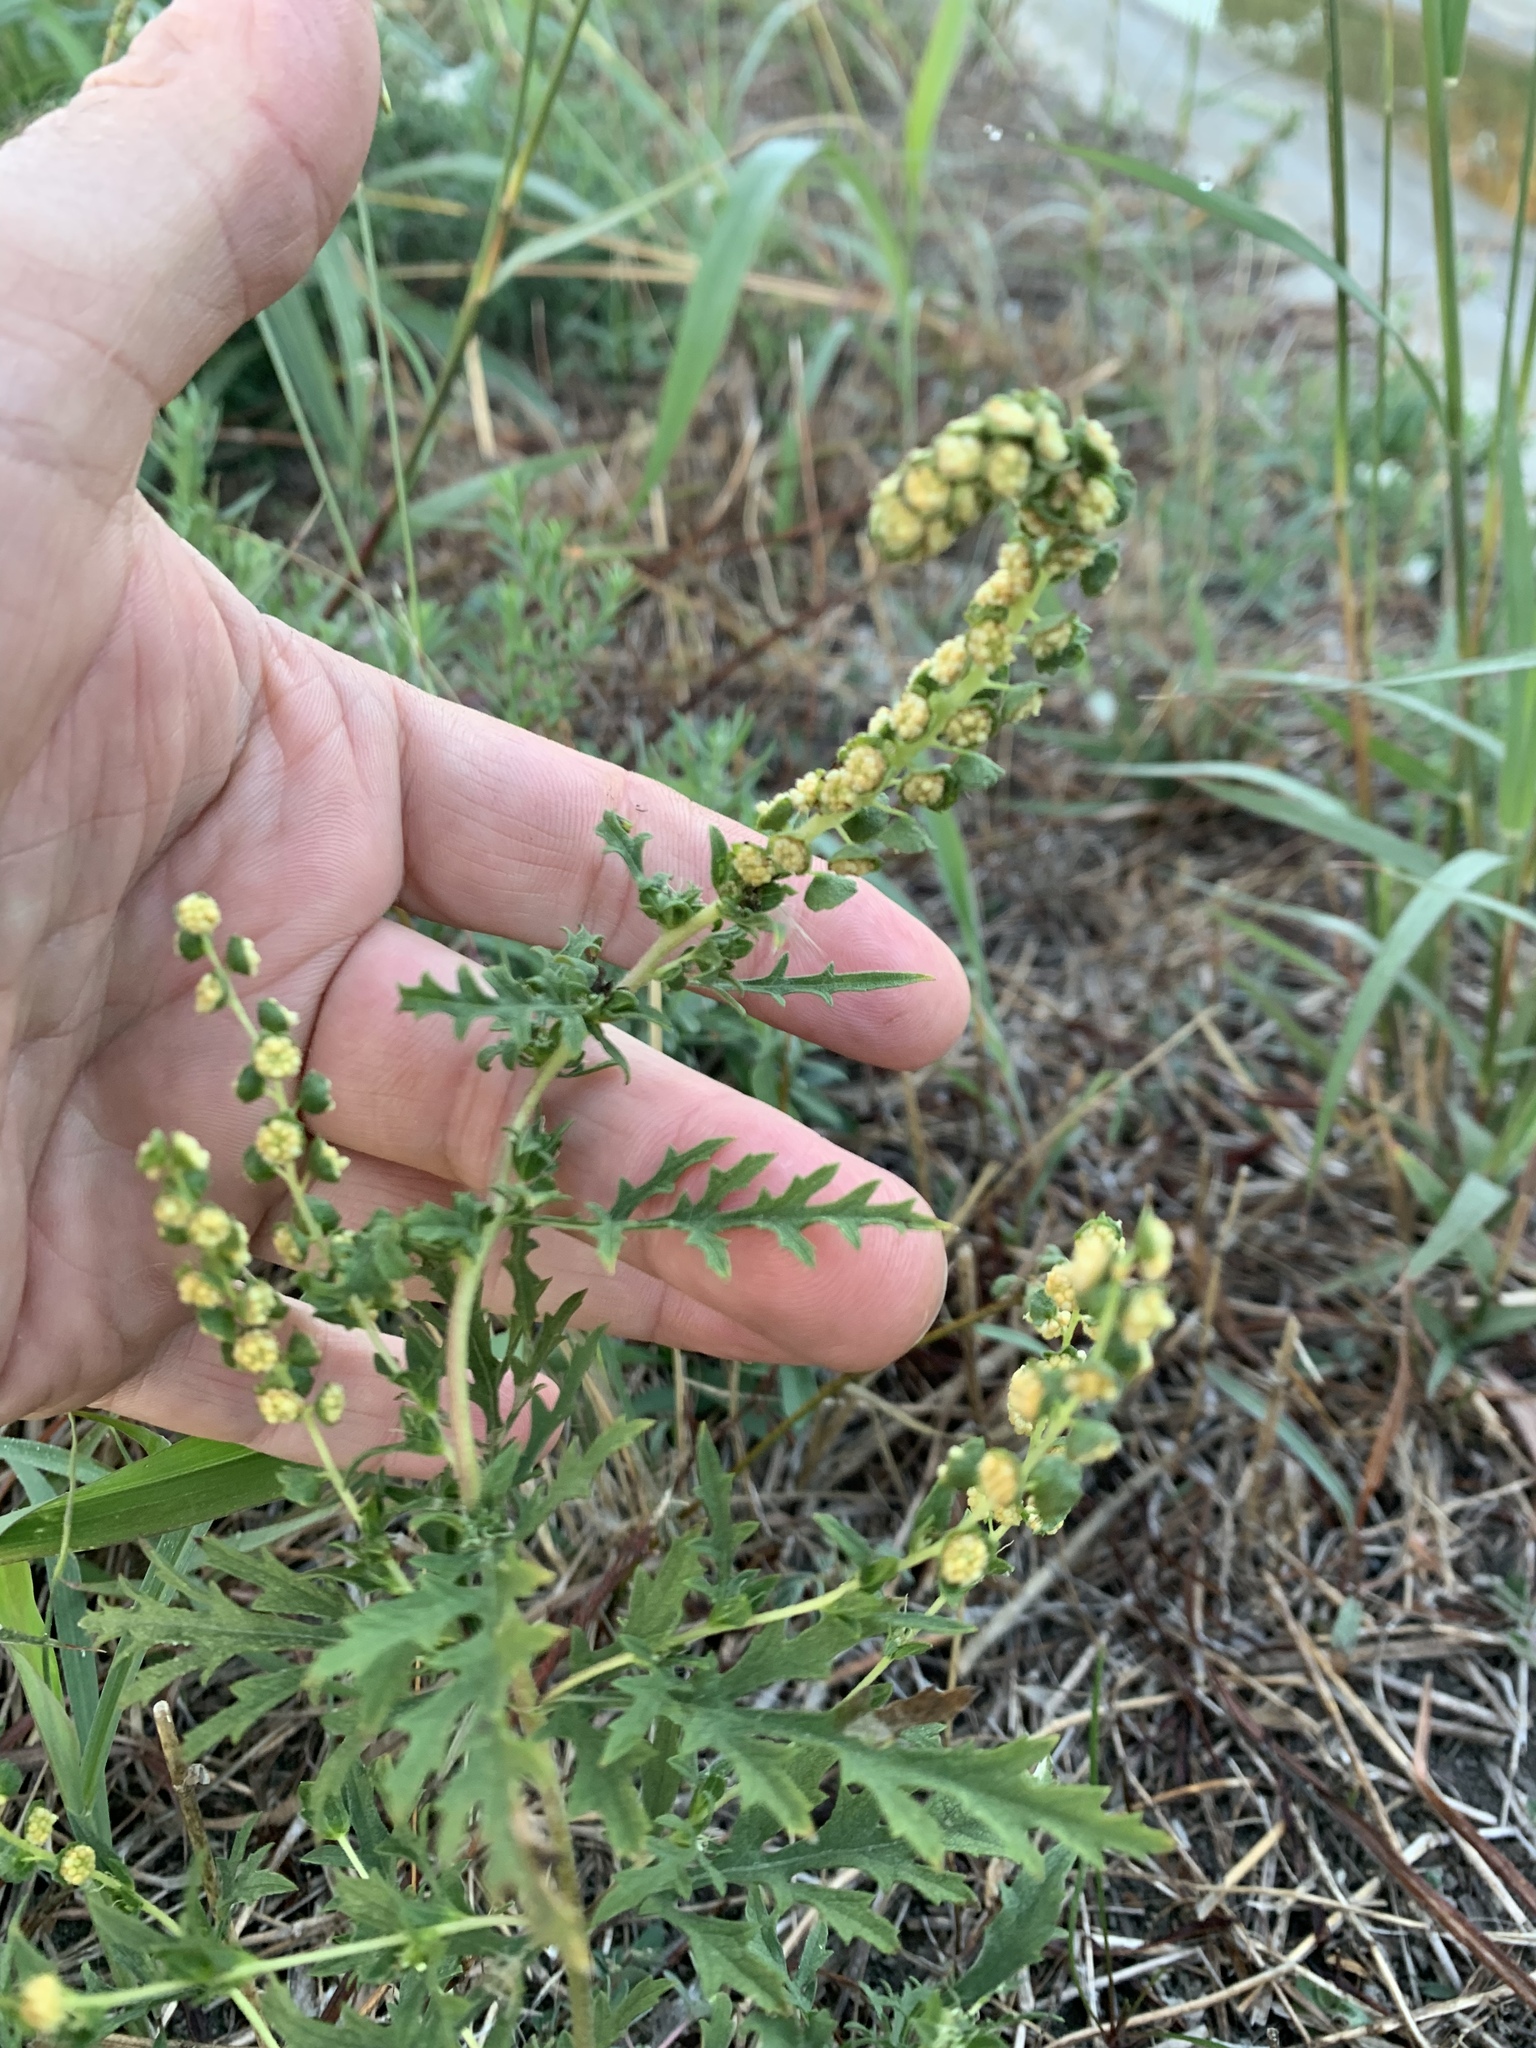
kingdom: Plantae
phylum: Tracheophyta
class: Magnoliopsida
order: Asterales
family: Asteraceae
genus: Ambrosia
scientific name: Ambrosia psilostachya
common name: Perennial ragweed
